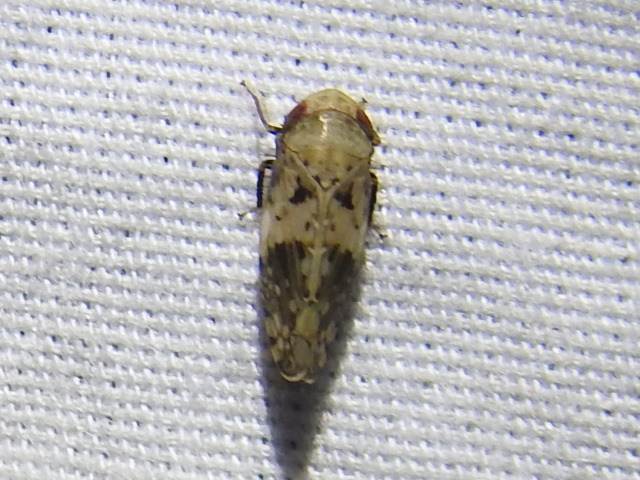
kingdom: Animalia
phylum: Arthropoda
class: Insecta
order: Hemiptera
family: Cicadellidae
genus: Menosoma
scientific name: Menosoma cinctum
